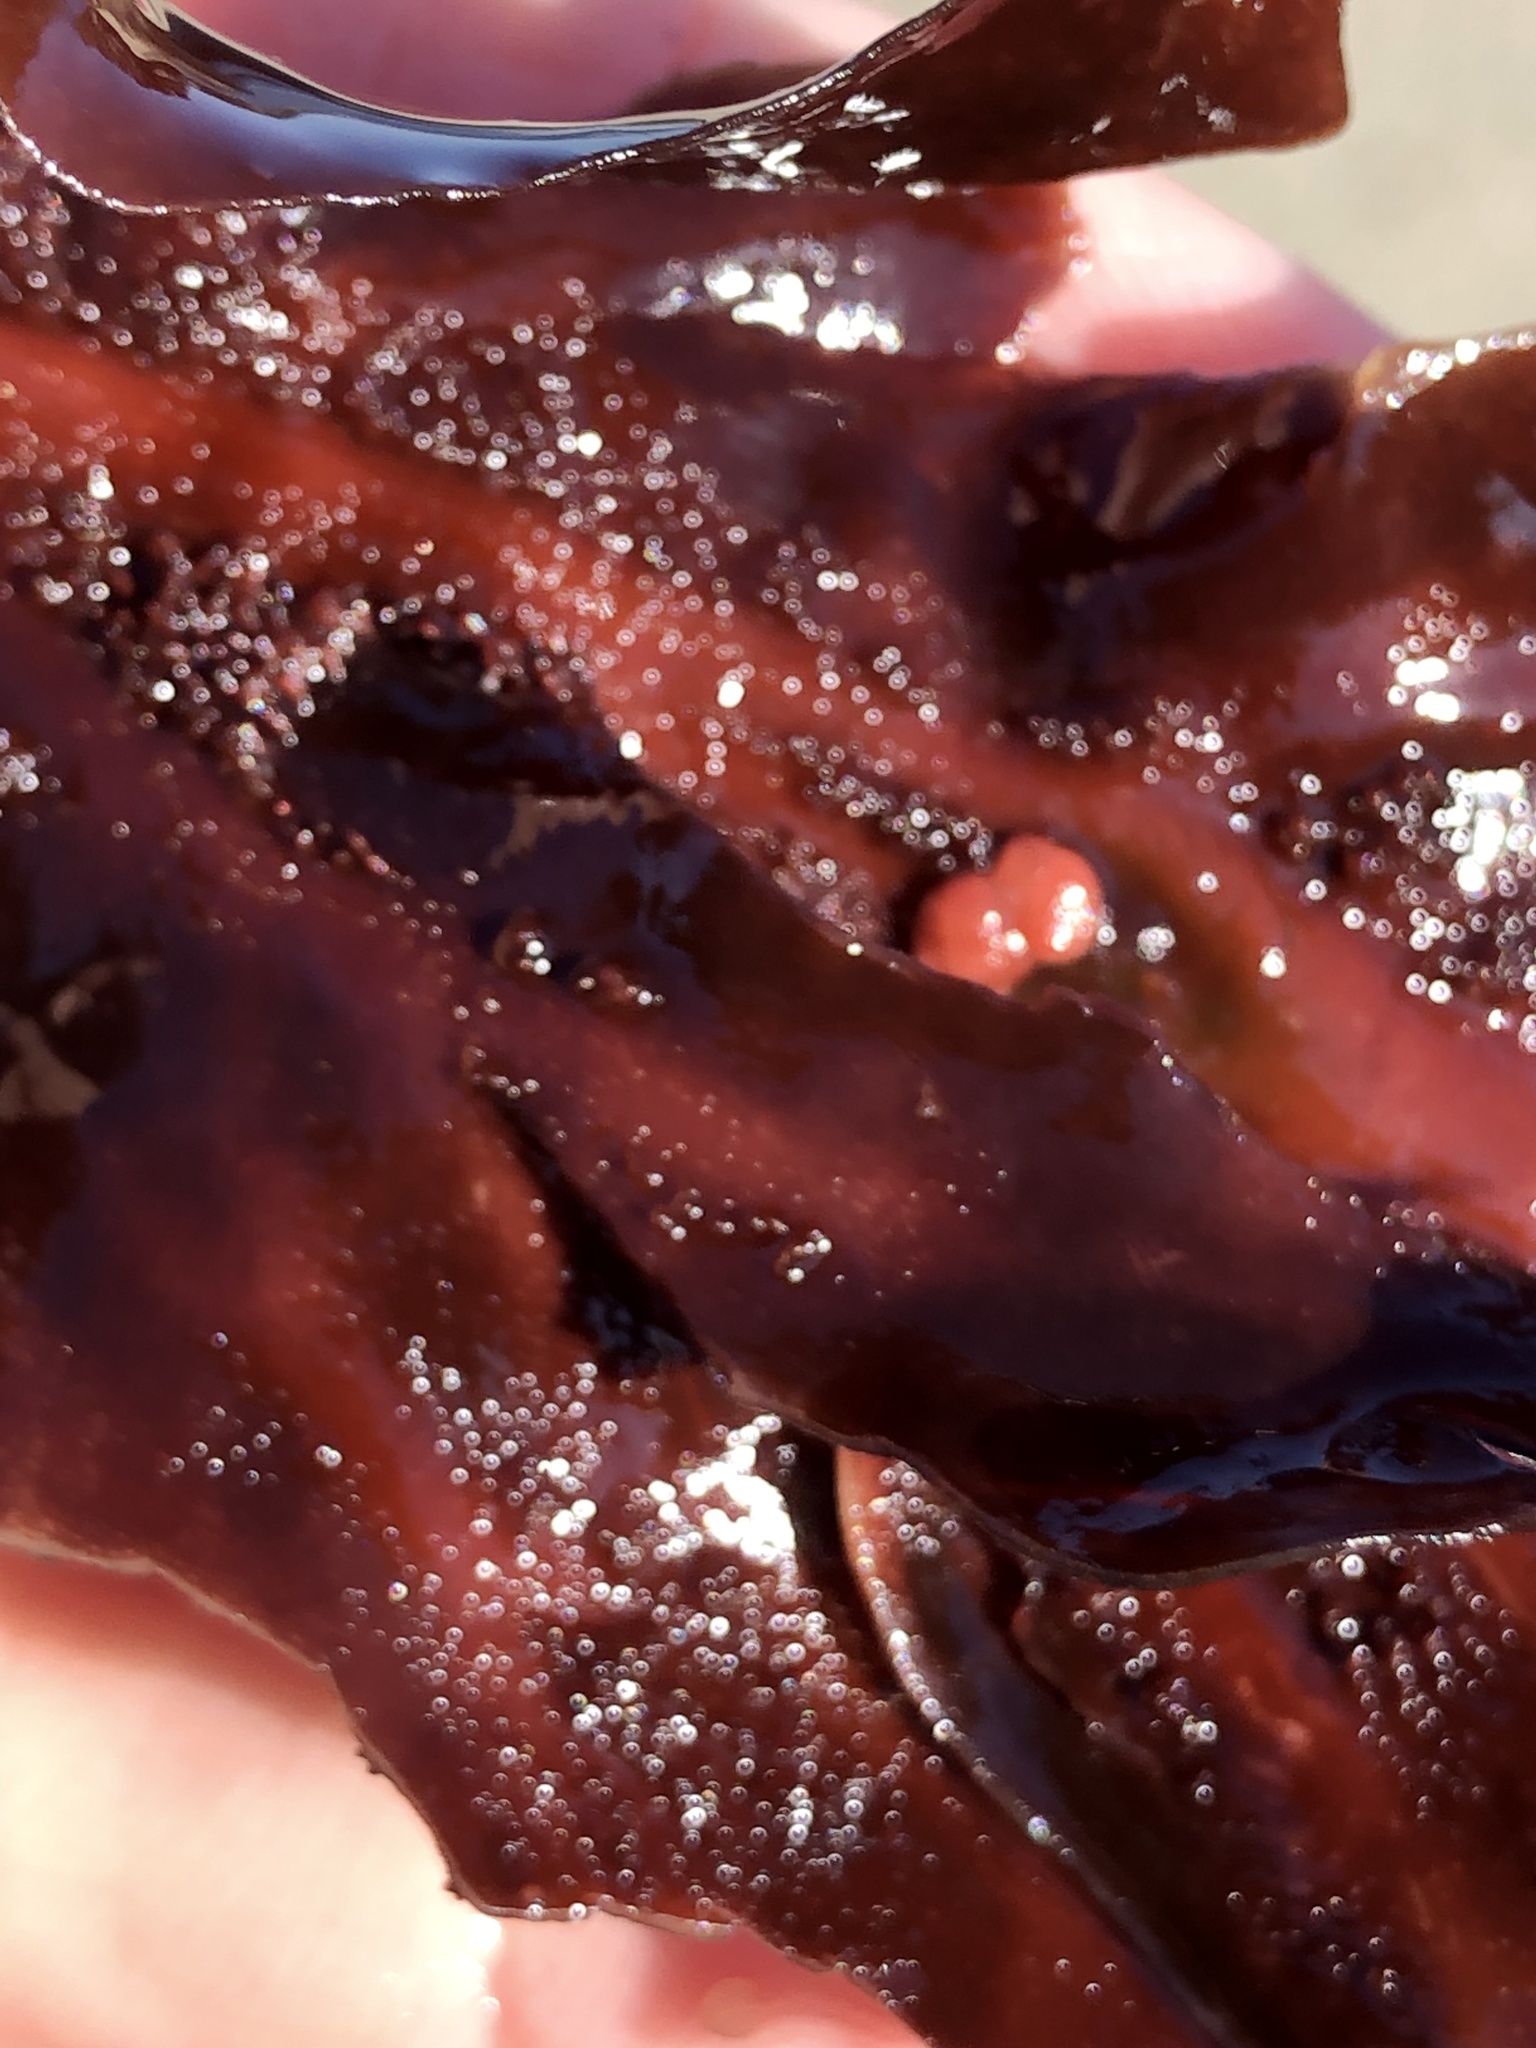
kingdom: Plantae
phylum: Rhodophyta
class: Florideophyceae
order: Gigartinales
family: Kallymeniaceae
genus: Erythrophyllum
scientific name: Erythrophyllum delesserioides
